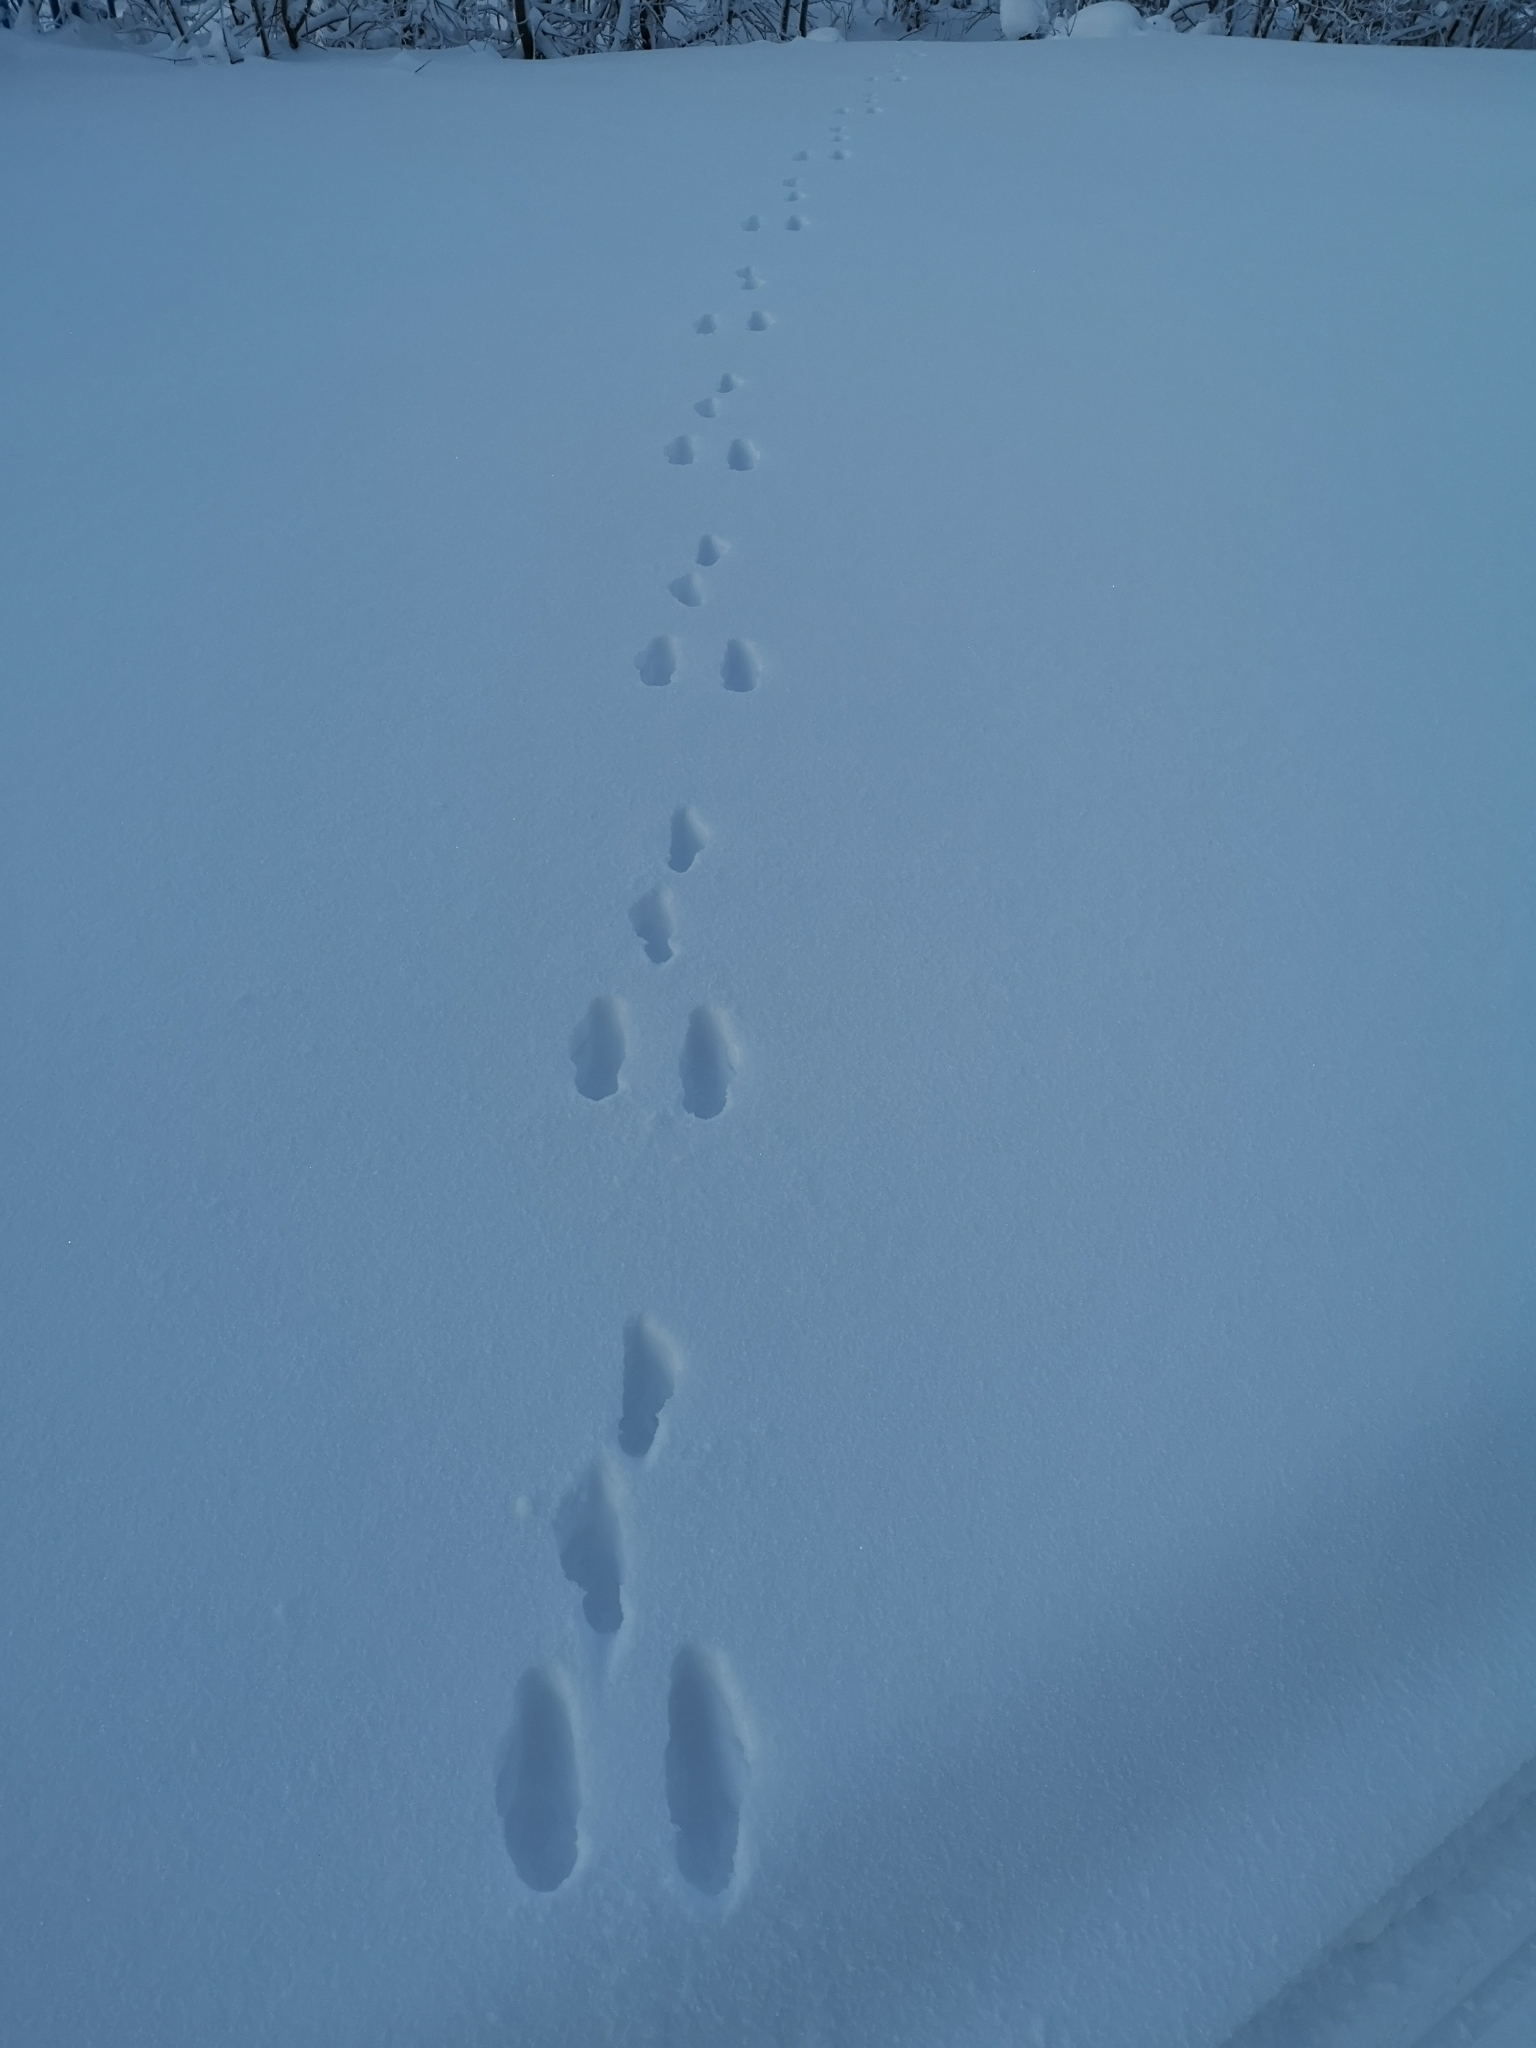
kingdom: Animalia
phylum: Chordata
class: Mammalia
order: Lagomorpha
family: Leporidae
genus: Lepus
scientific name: Lepus timidus
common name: Mountain hare
